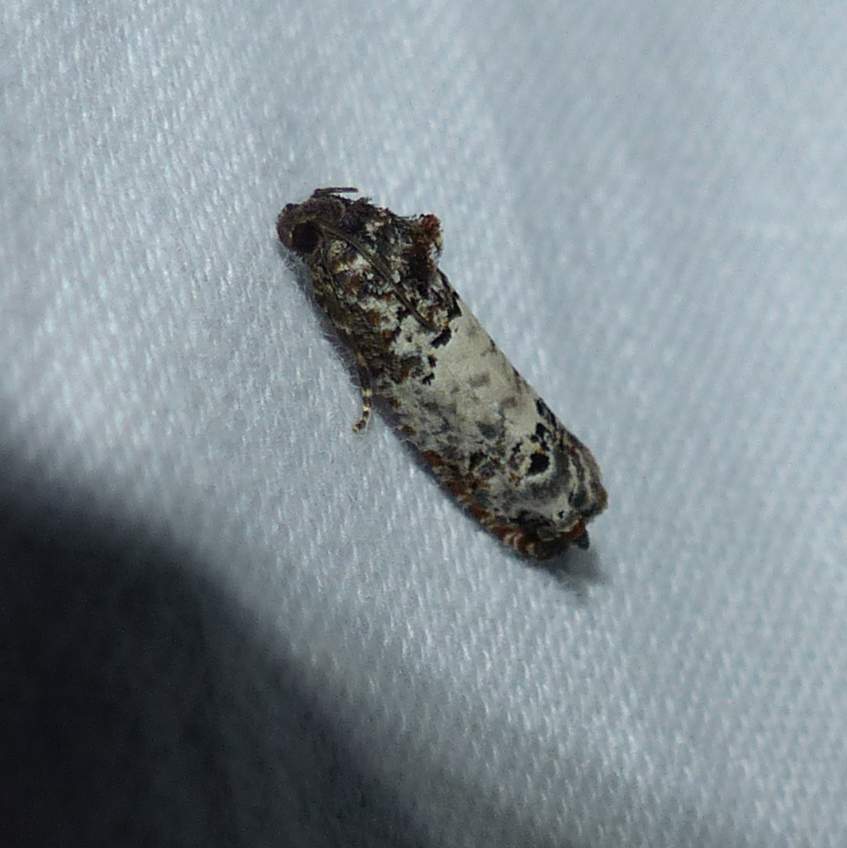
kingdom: Animalia
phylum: Arthropoda
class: Insecta
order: Lepidoptera
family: Tortricidae
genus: Epiblema
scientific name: Epiblema carolinana
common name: Gray-blotched epiblema moth
